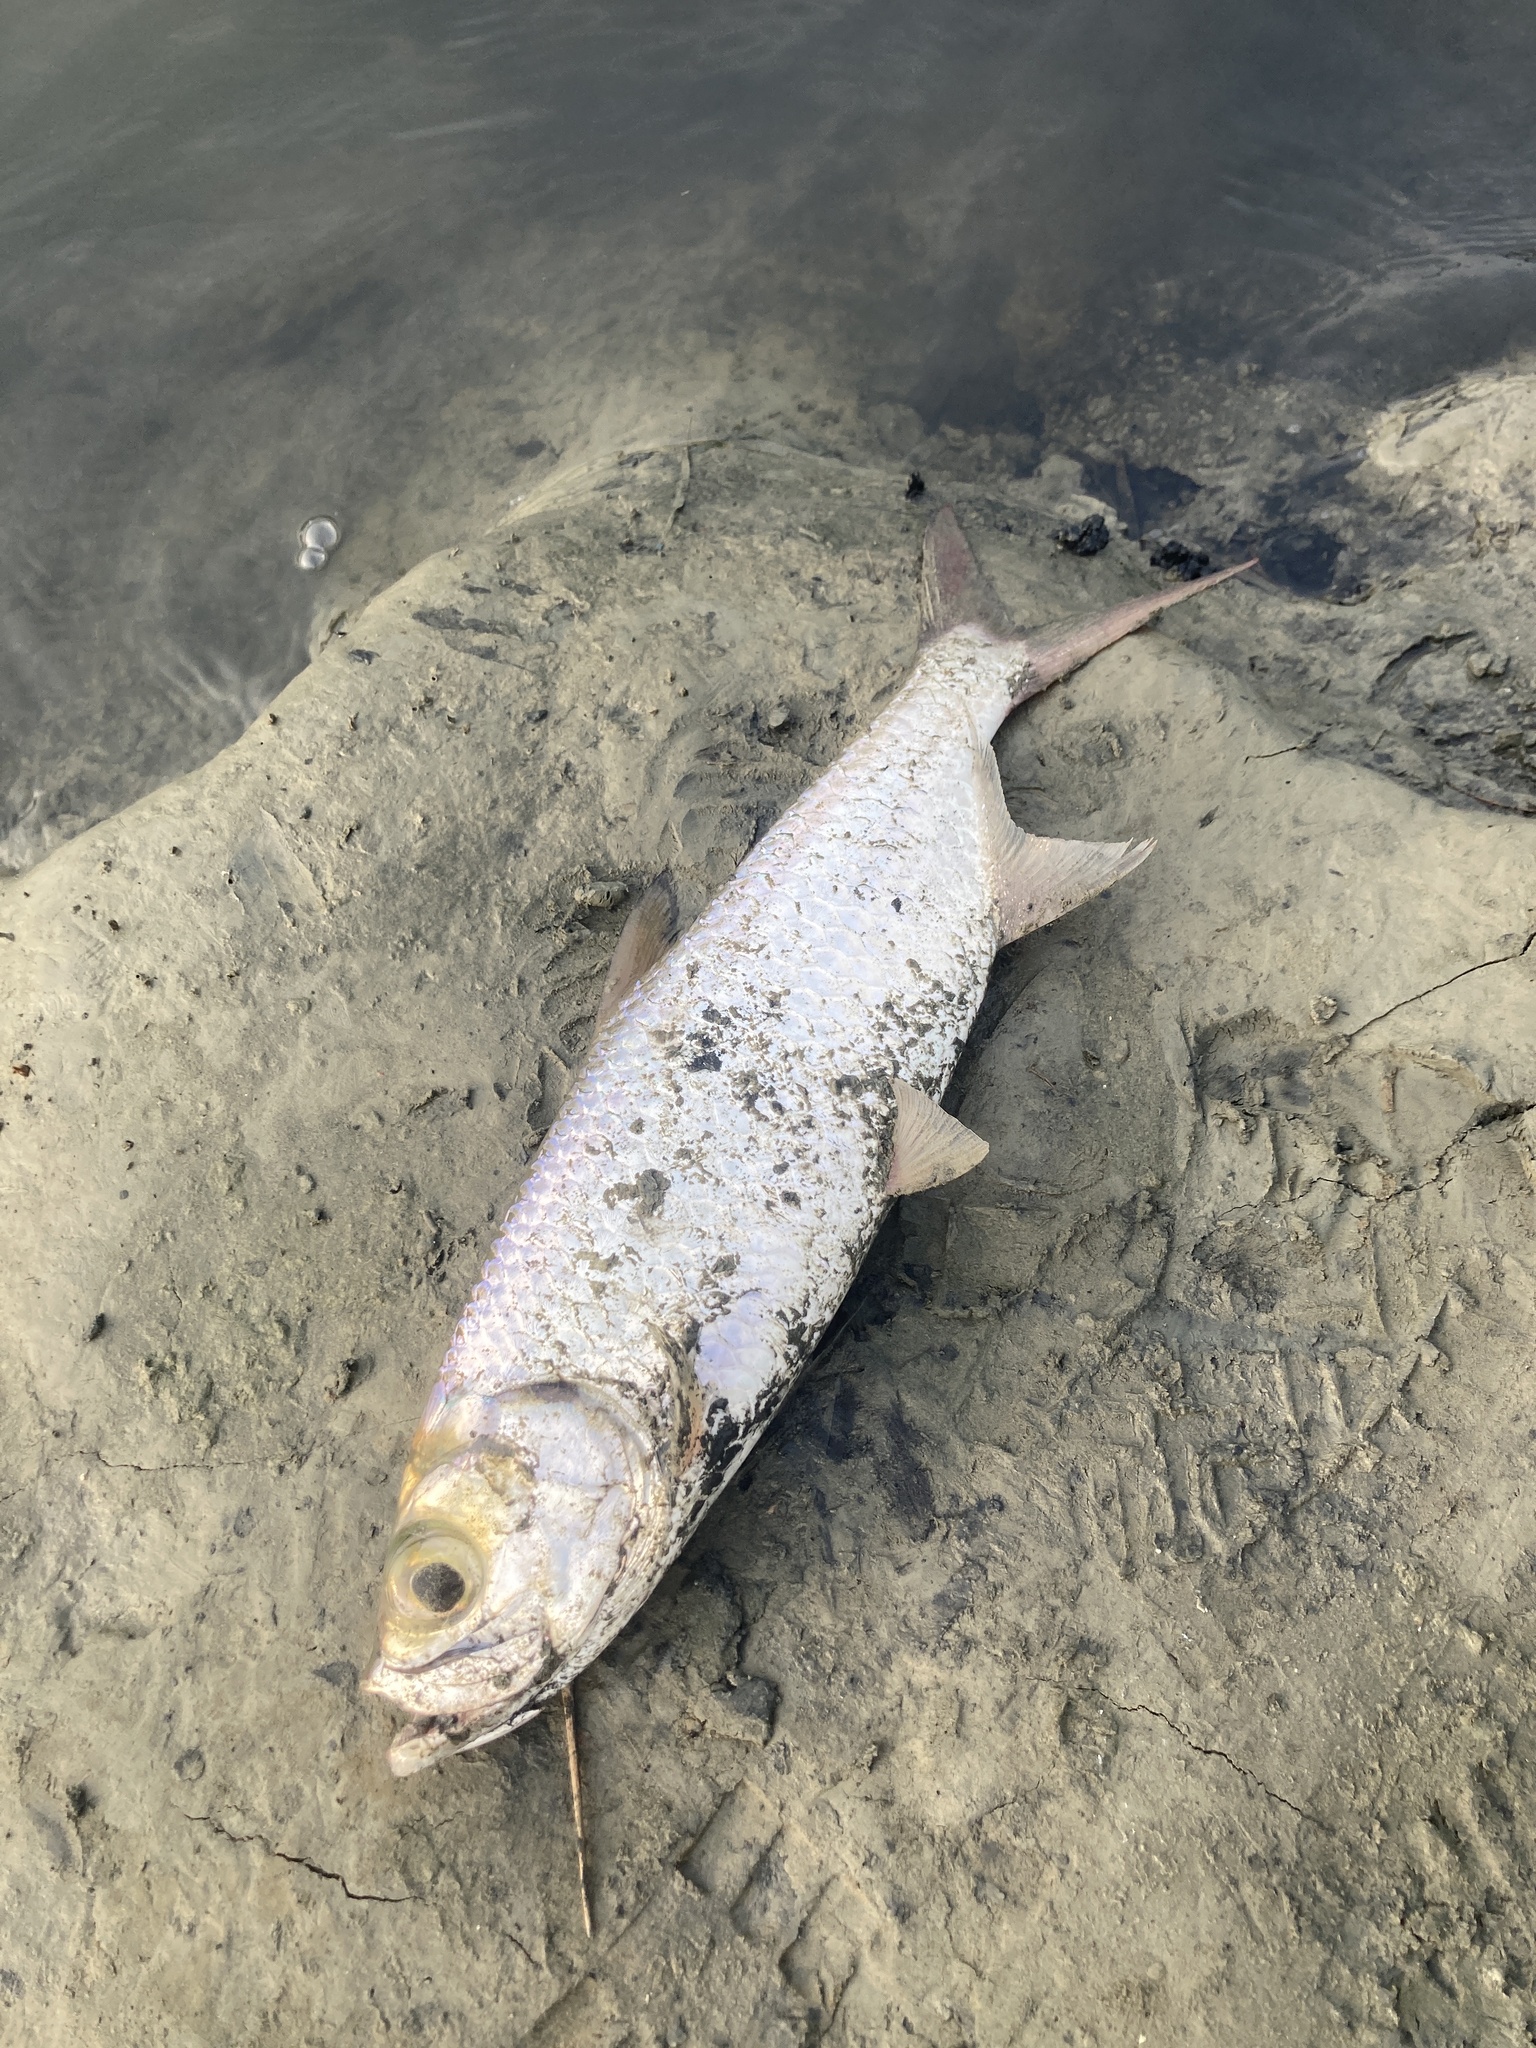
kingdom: Animalia
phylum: Chordata
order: Elopiformes
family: Megalopidae
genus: Megalops
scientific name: Megalops cyprinoides
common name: Indo-pacific tarpon
